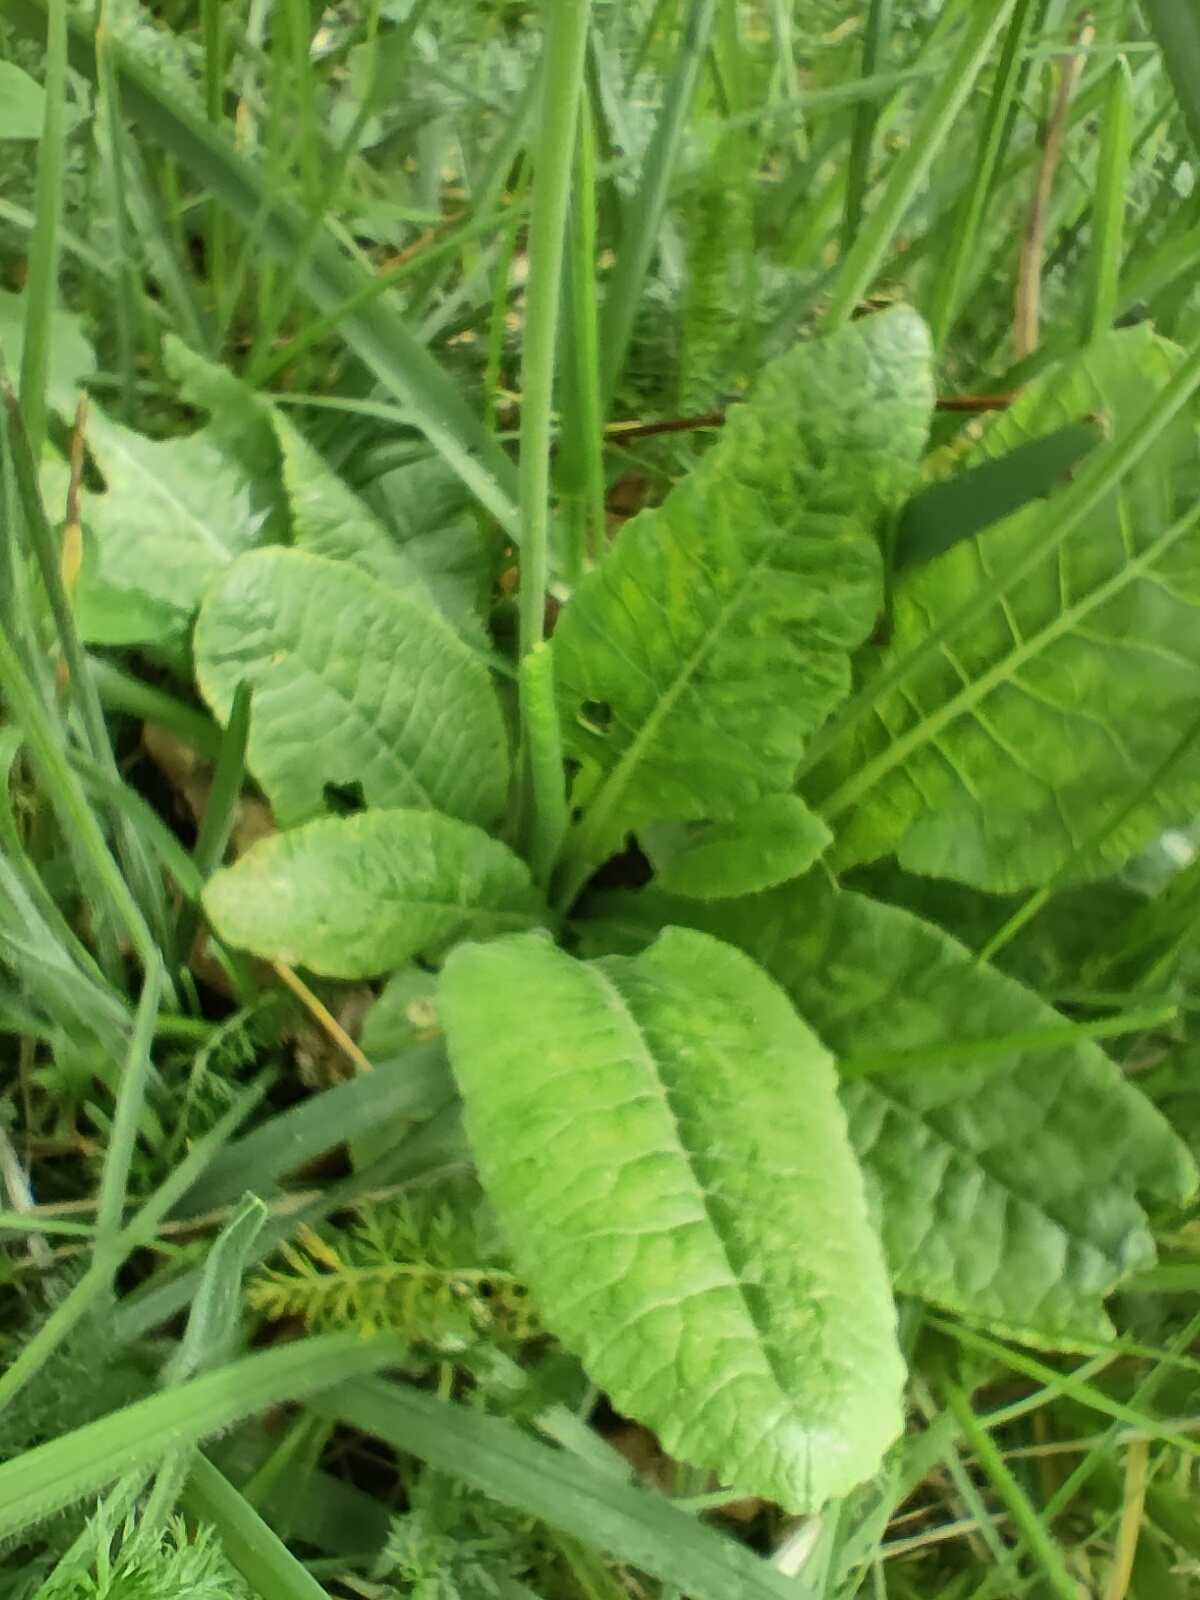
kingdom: Plantae
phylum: Tracheophyta
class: Magnoliopsida
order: Ericales
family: Primulaceae
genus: Primula
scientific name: Primula veris
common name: Cowslip
